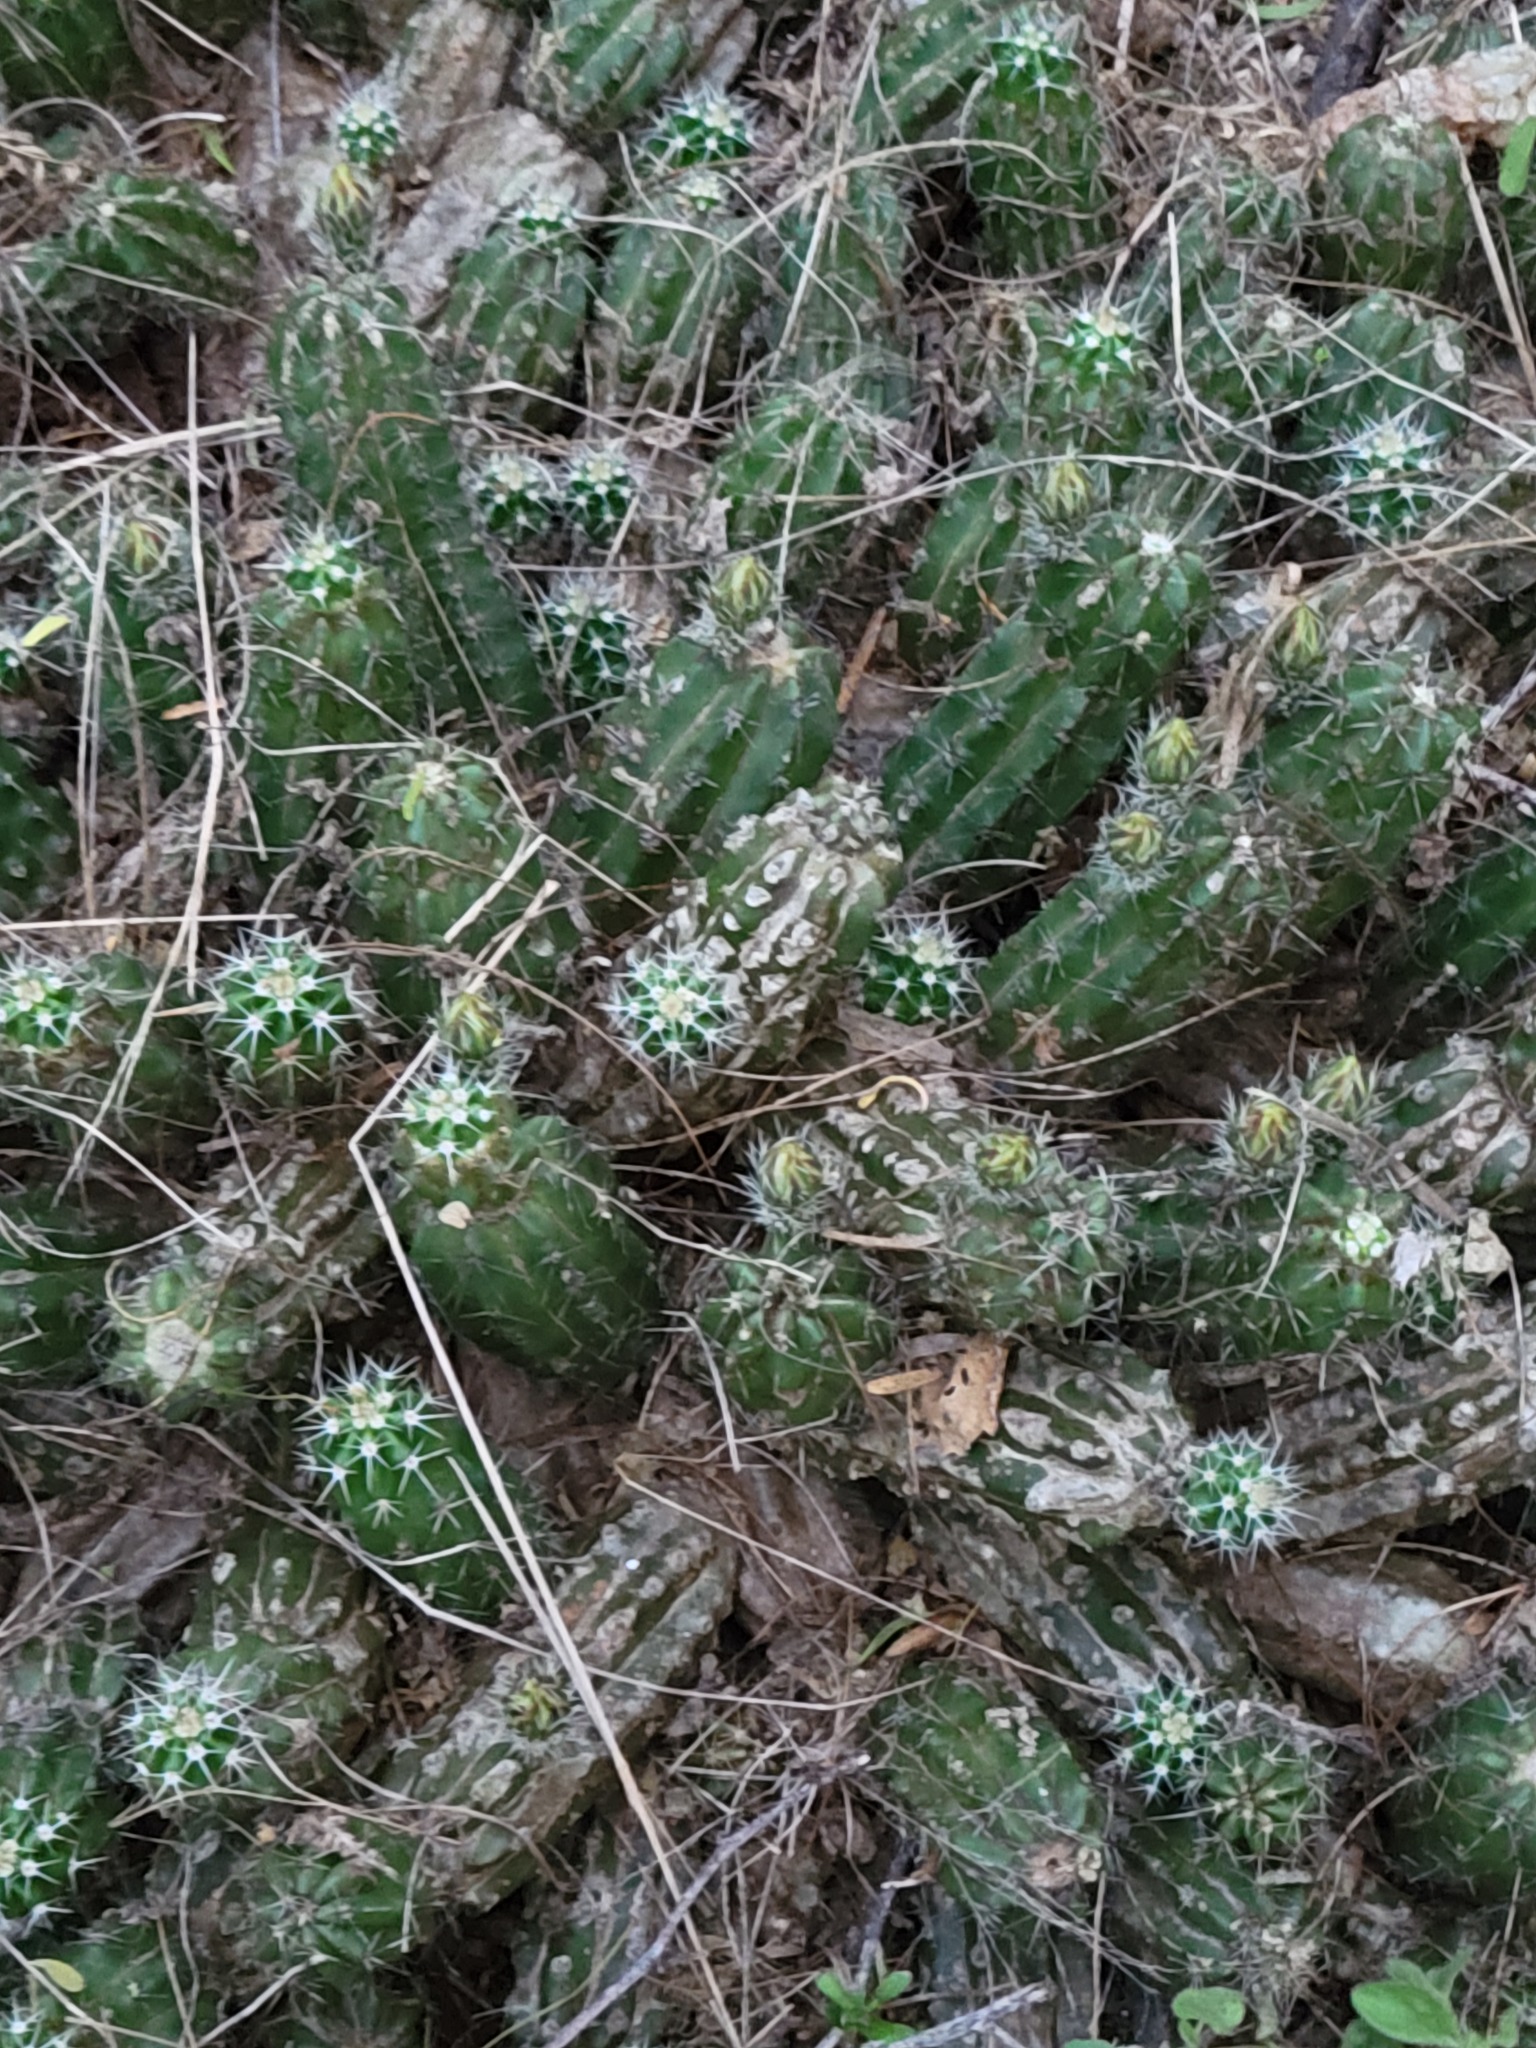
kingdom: Plantae
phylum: Tracheophyta
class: Magnoliopsida
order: Caryophyllales
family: Cactaceae
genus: Echinocereus
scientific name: Echinocereus enneacanthus
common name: Pitaya
